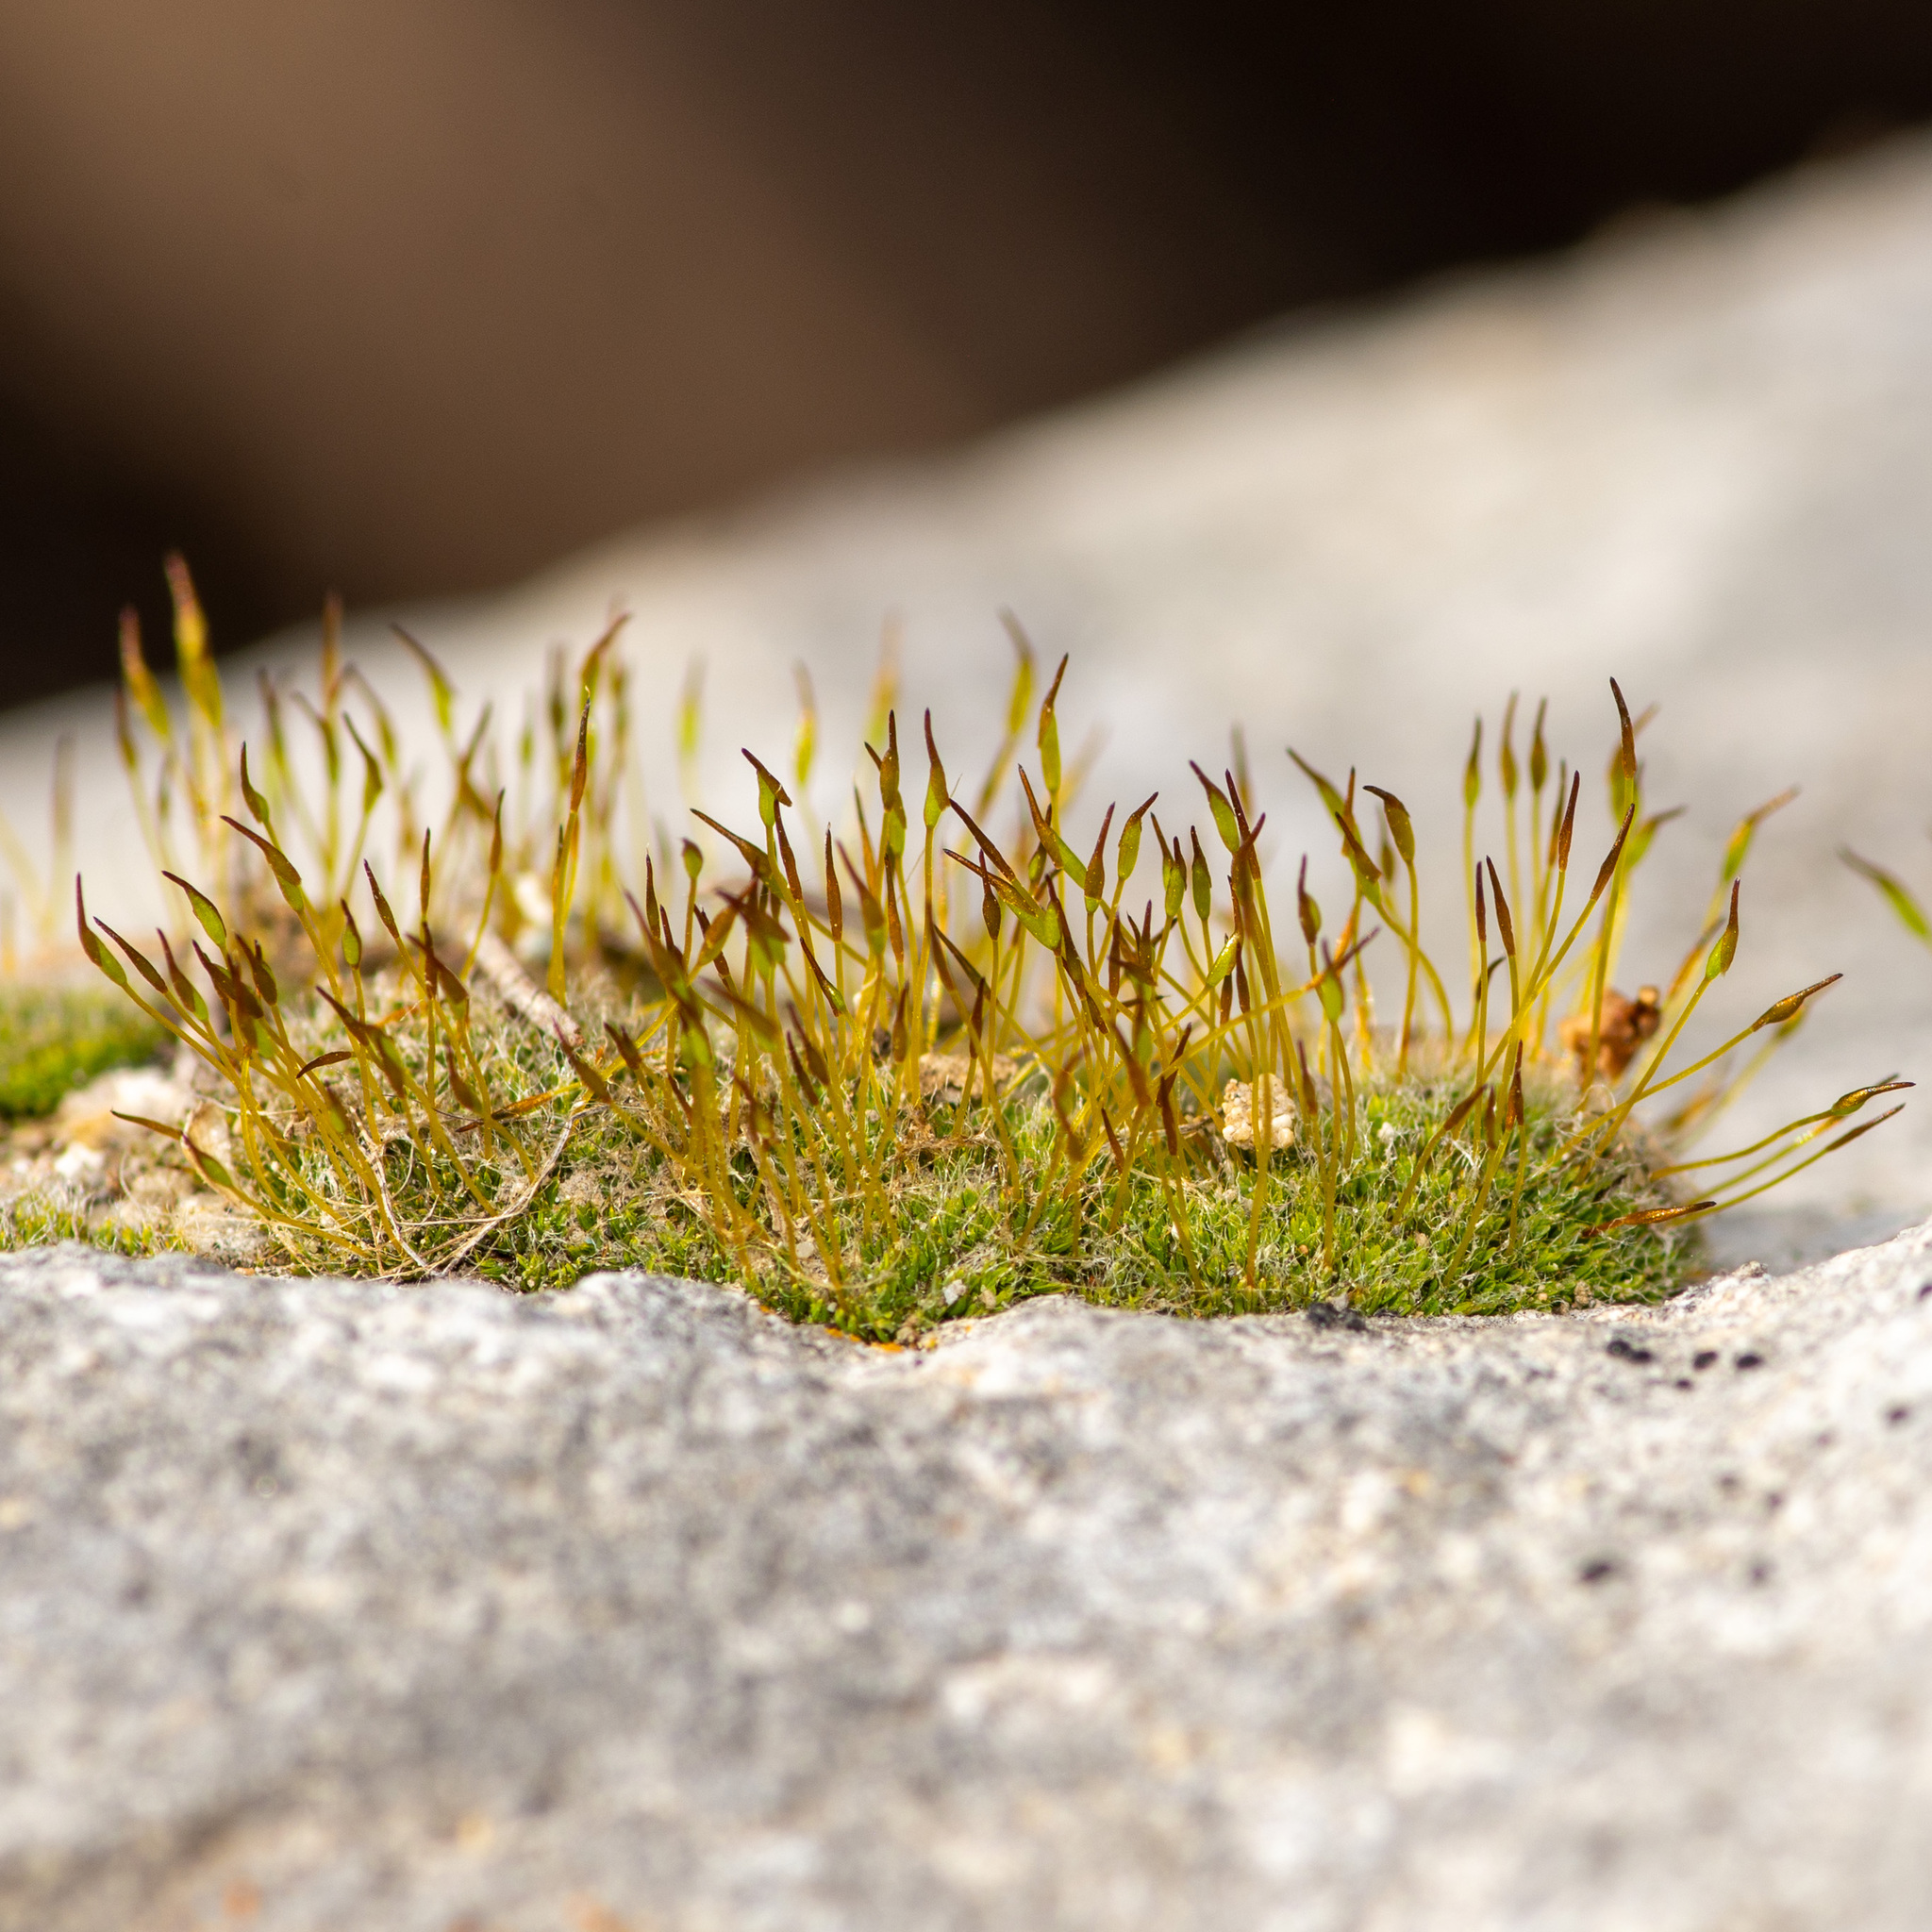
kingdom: Plantae
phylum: Bryophyta
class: Bryopsida
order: Pottiales
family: Pottiaceae
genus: Tortula
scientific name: Tortula muralis
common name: Wall screw-moss
